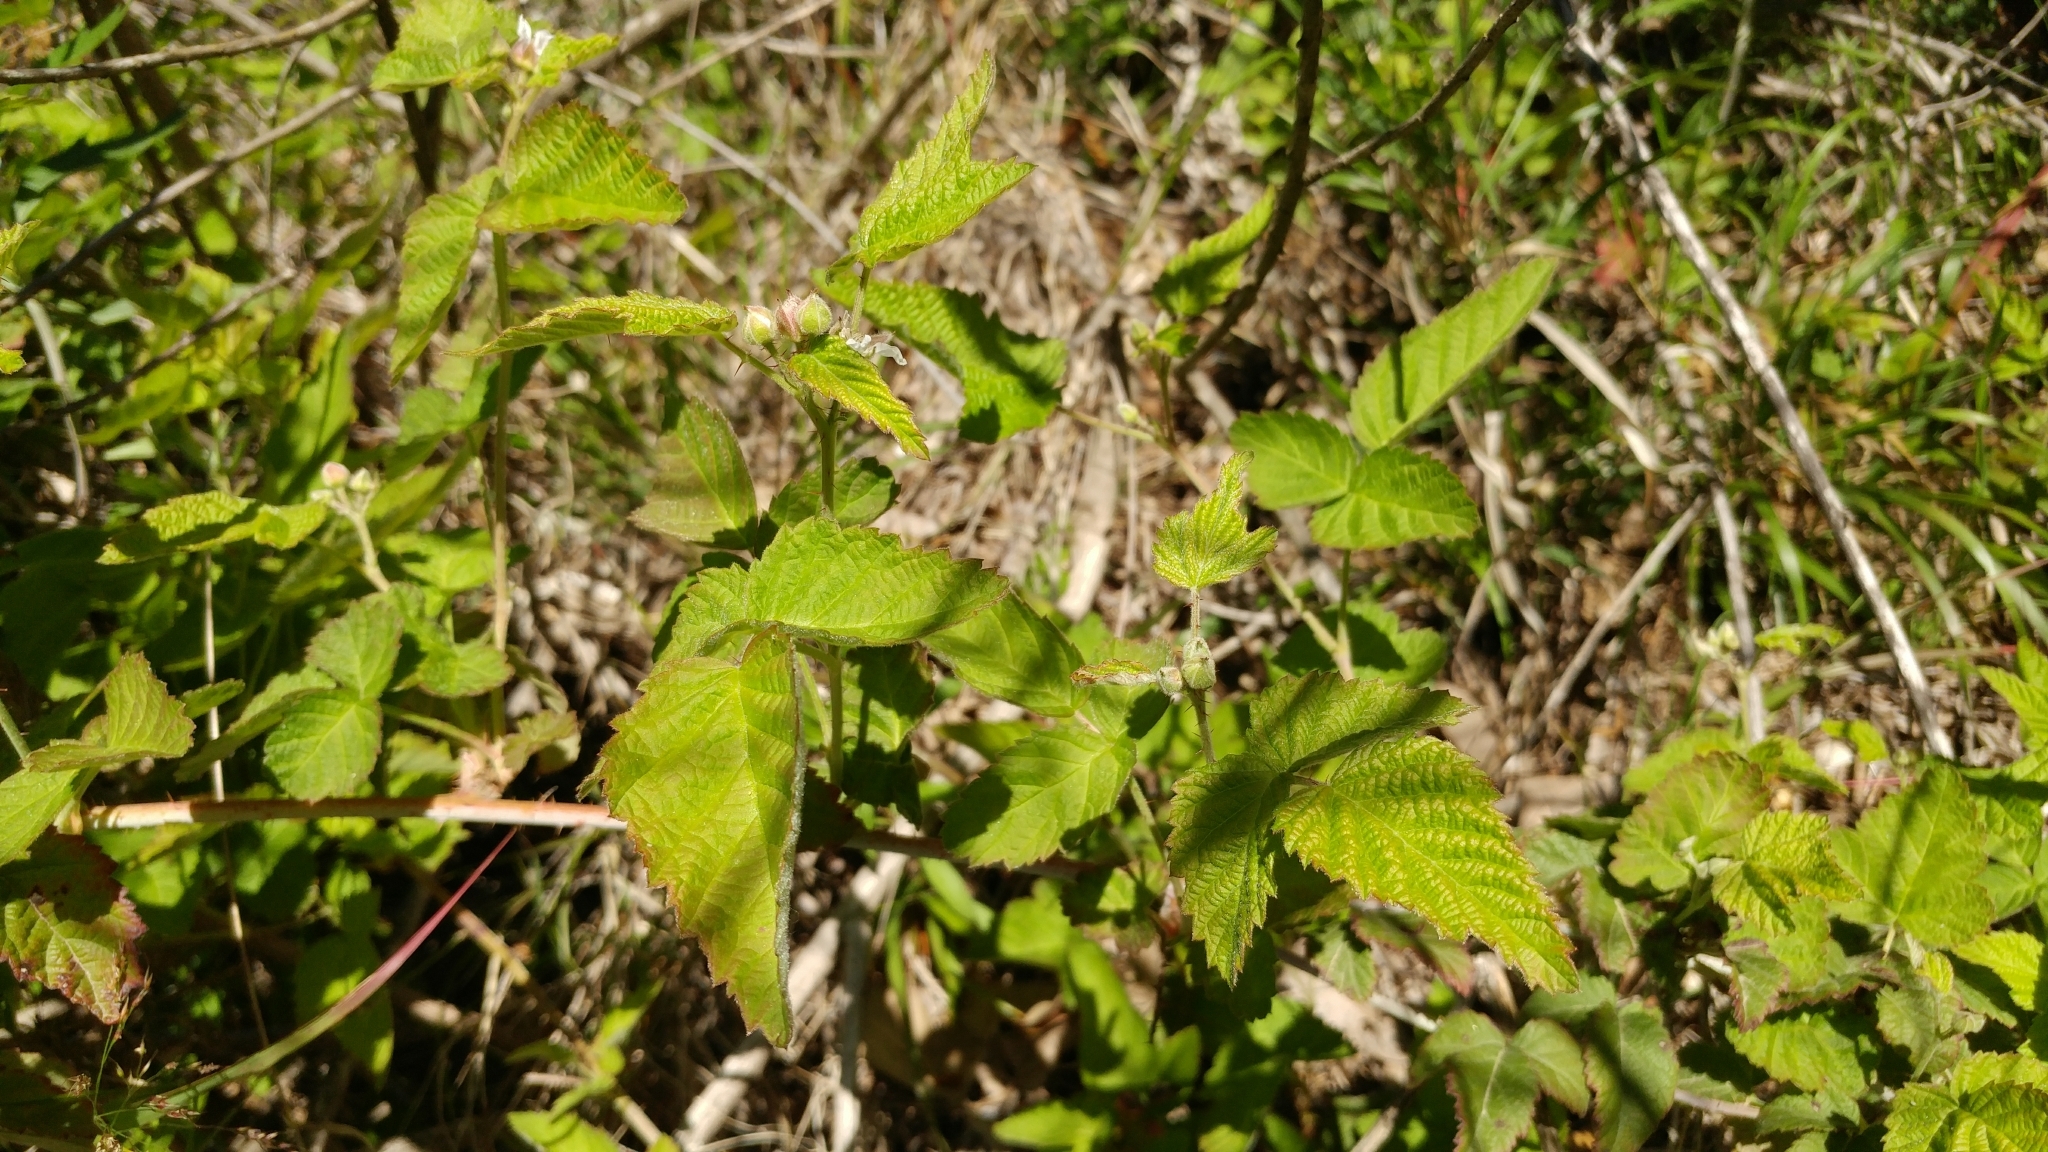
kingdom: Plantae
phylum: Tracheophyta
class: Magnoliopsida
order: Rosales
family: Rosaceae
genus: Rubus
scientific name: Rubus ursinus
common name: Pacific blackberry
